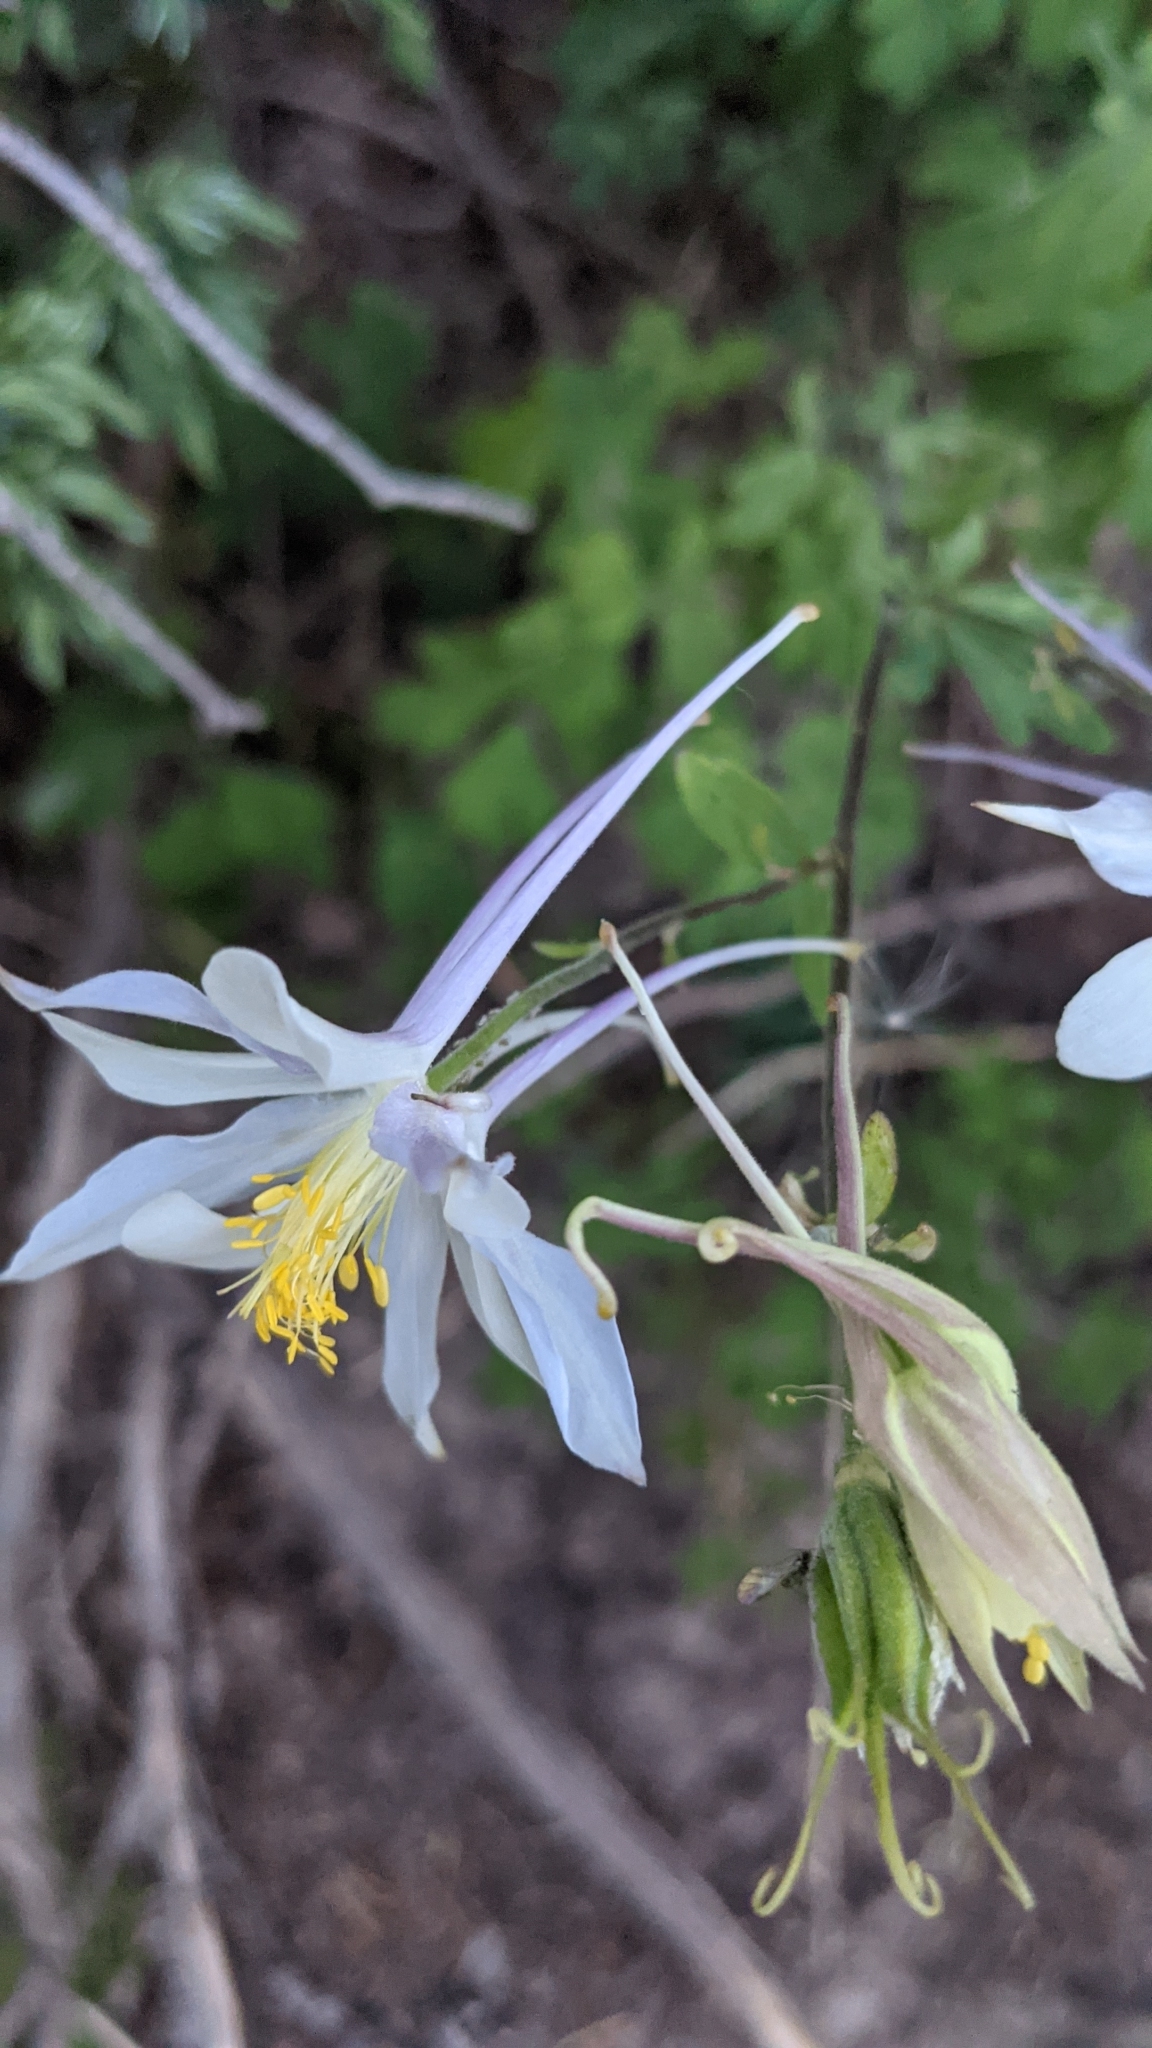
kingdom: Plantae
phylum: Tracheophyta
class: Magnoliopsida
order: Ranunculales
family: Ranunculaceae
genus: Aquilegia
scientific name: Aquilegia coerulea
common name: Rocky mountain columbine
